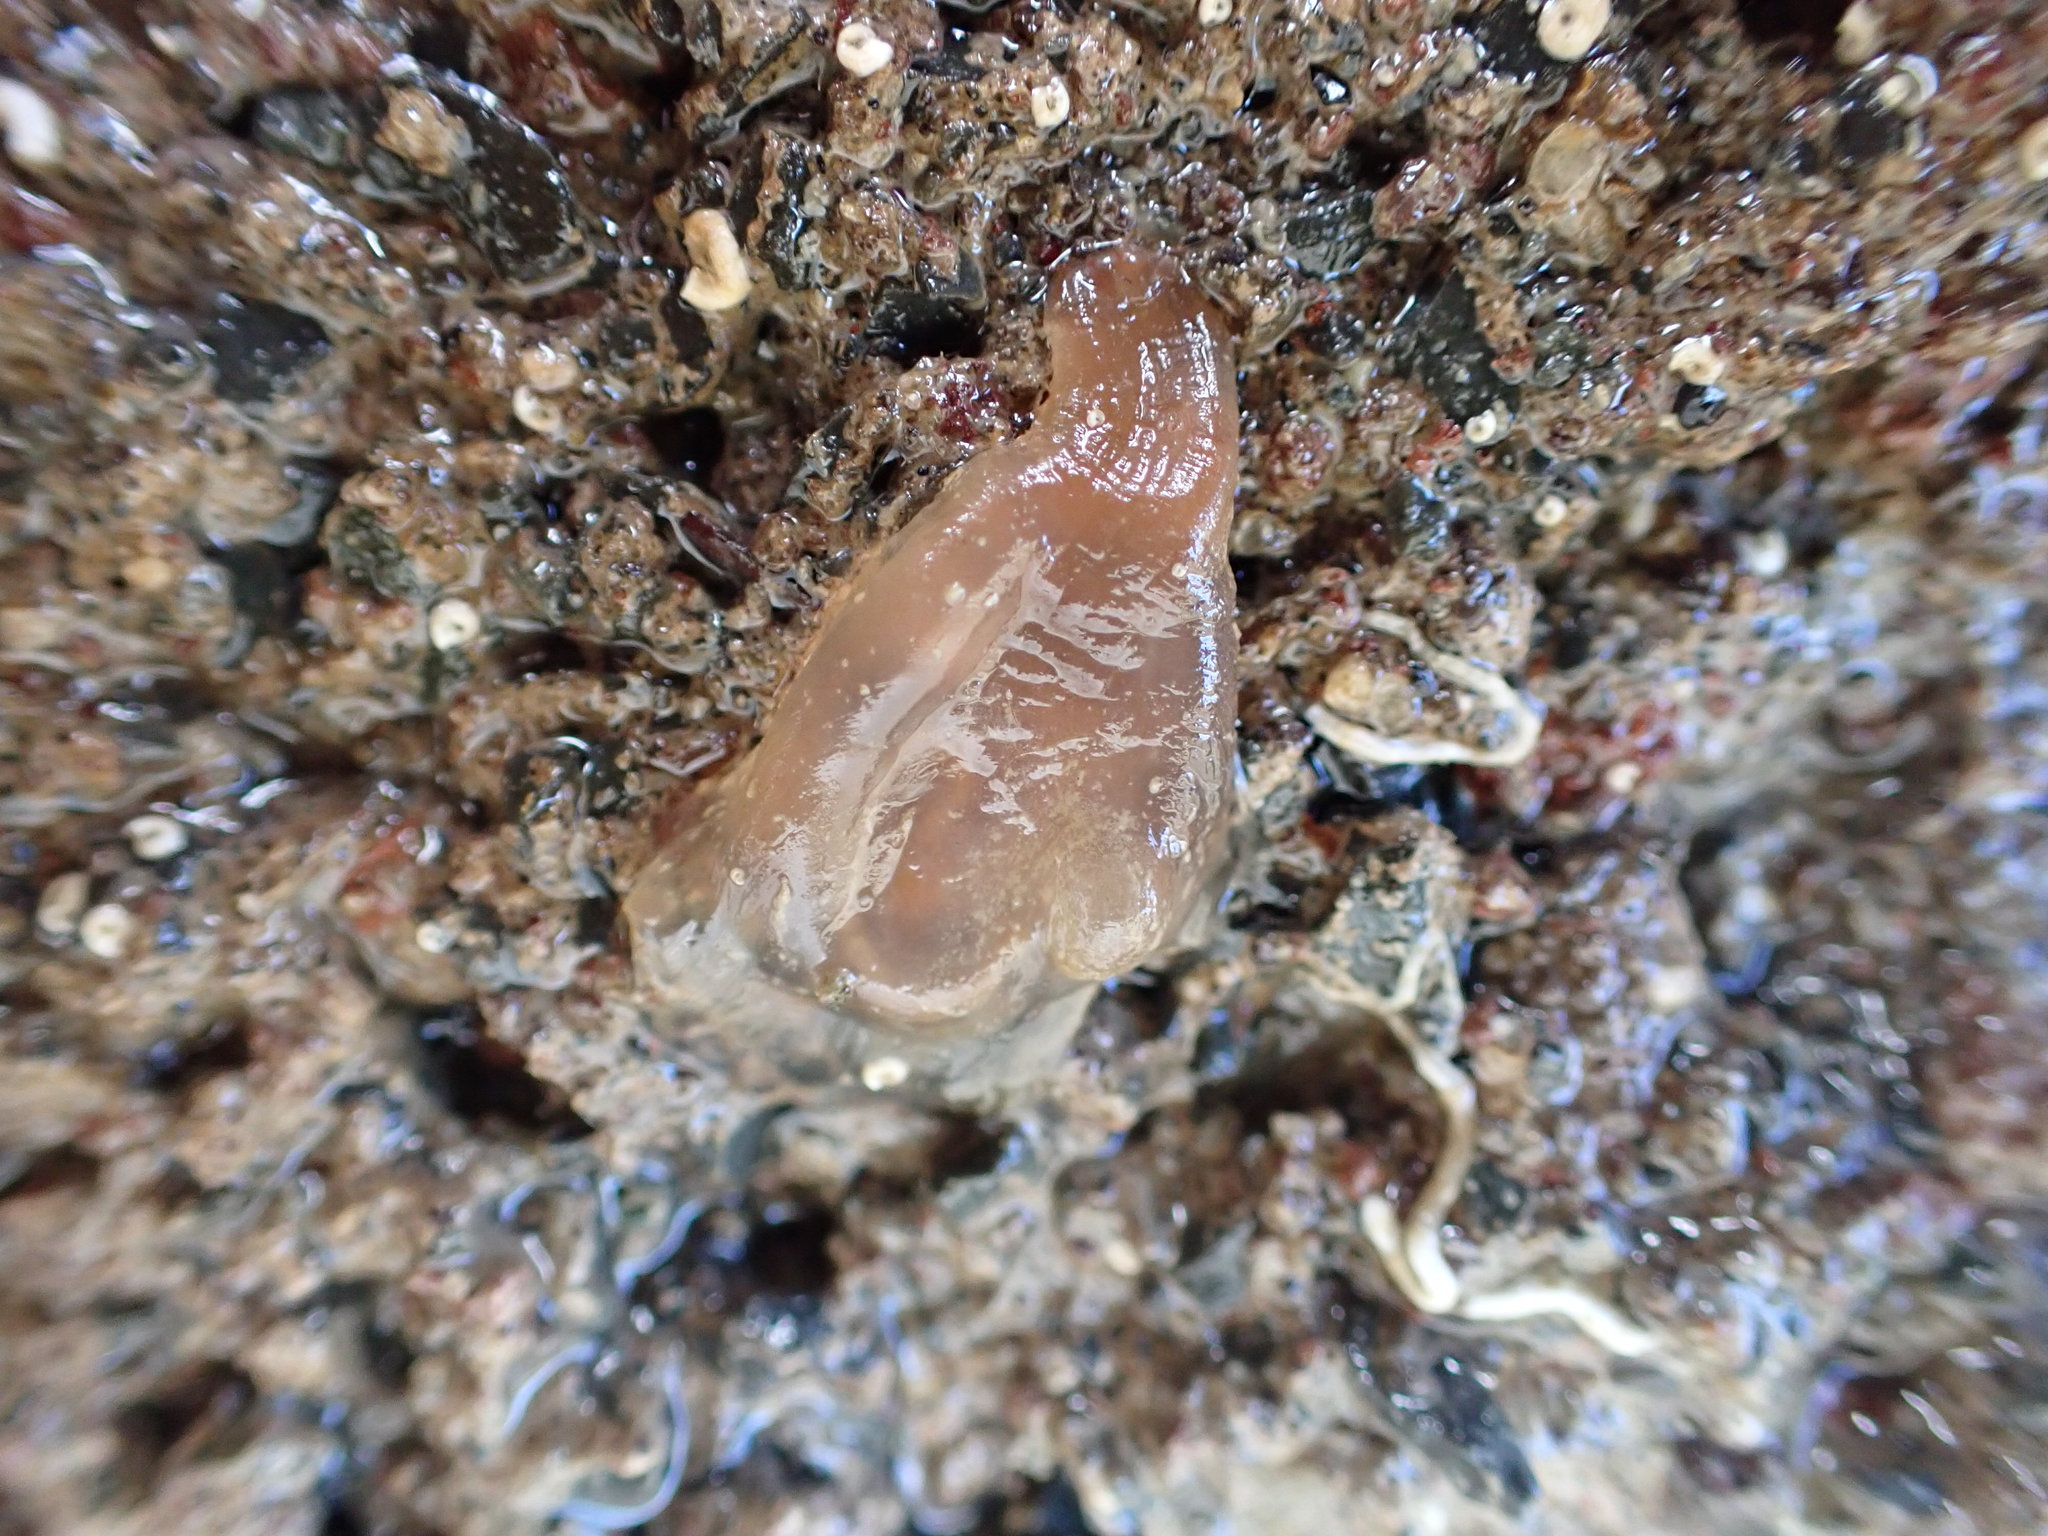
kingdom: Animalia
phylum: Chordata
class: Ascidiacea
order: Phlebobranchia
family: Corellidae
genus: Corella
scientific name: Corella eumyota
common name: Orange-tipped sea squirt
